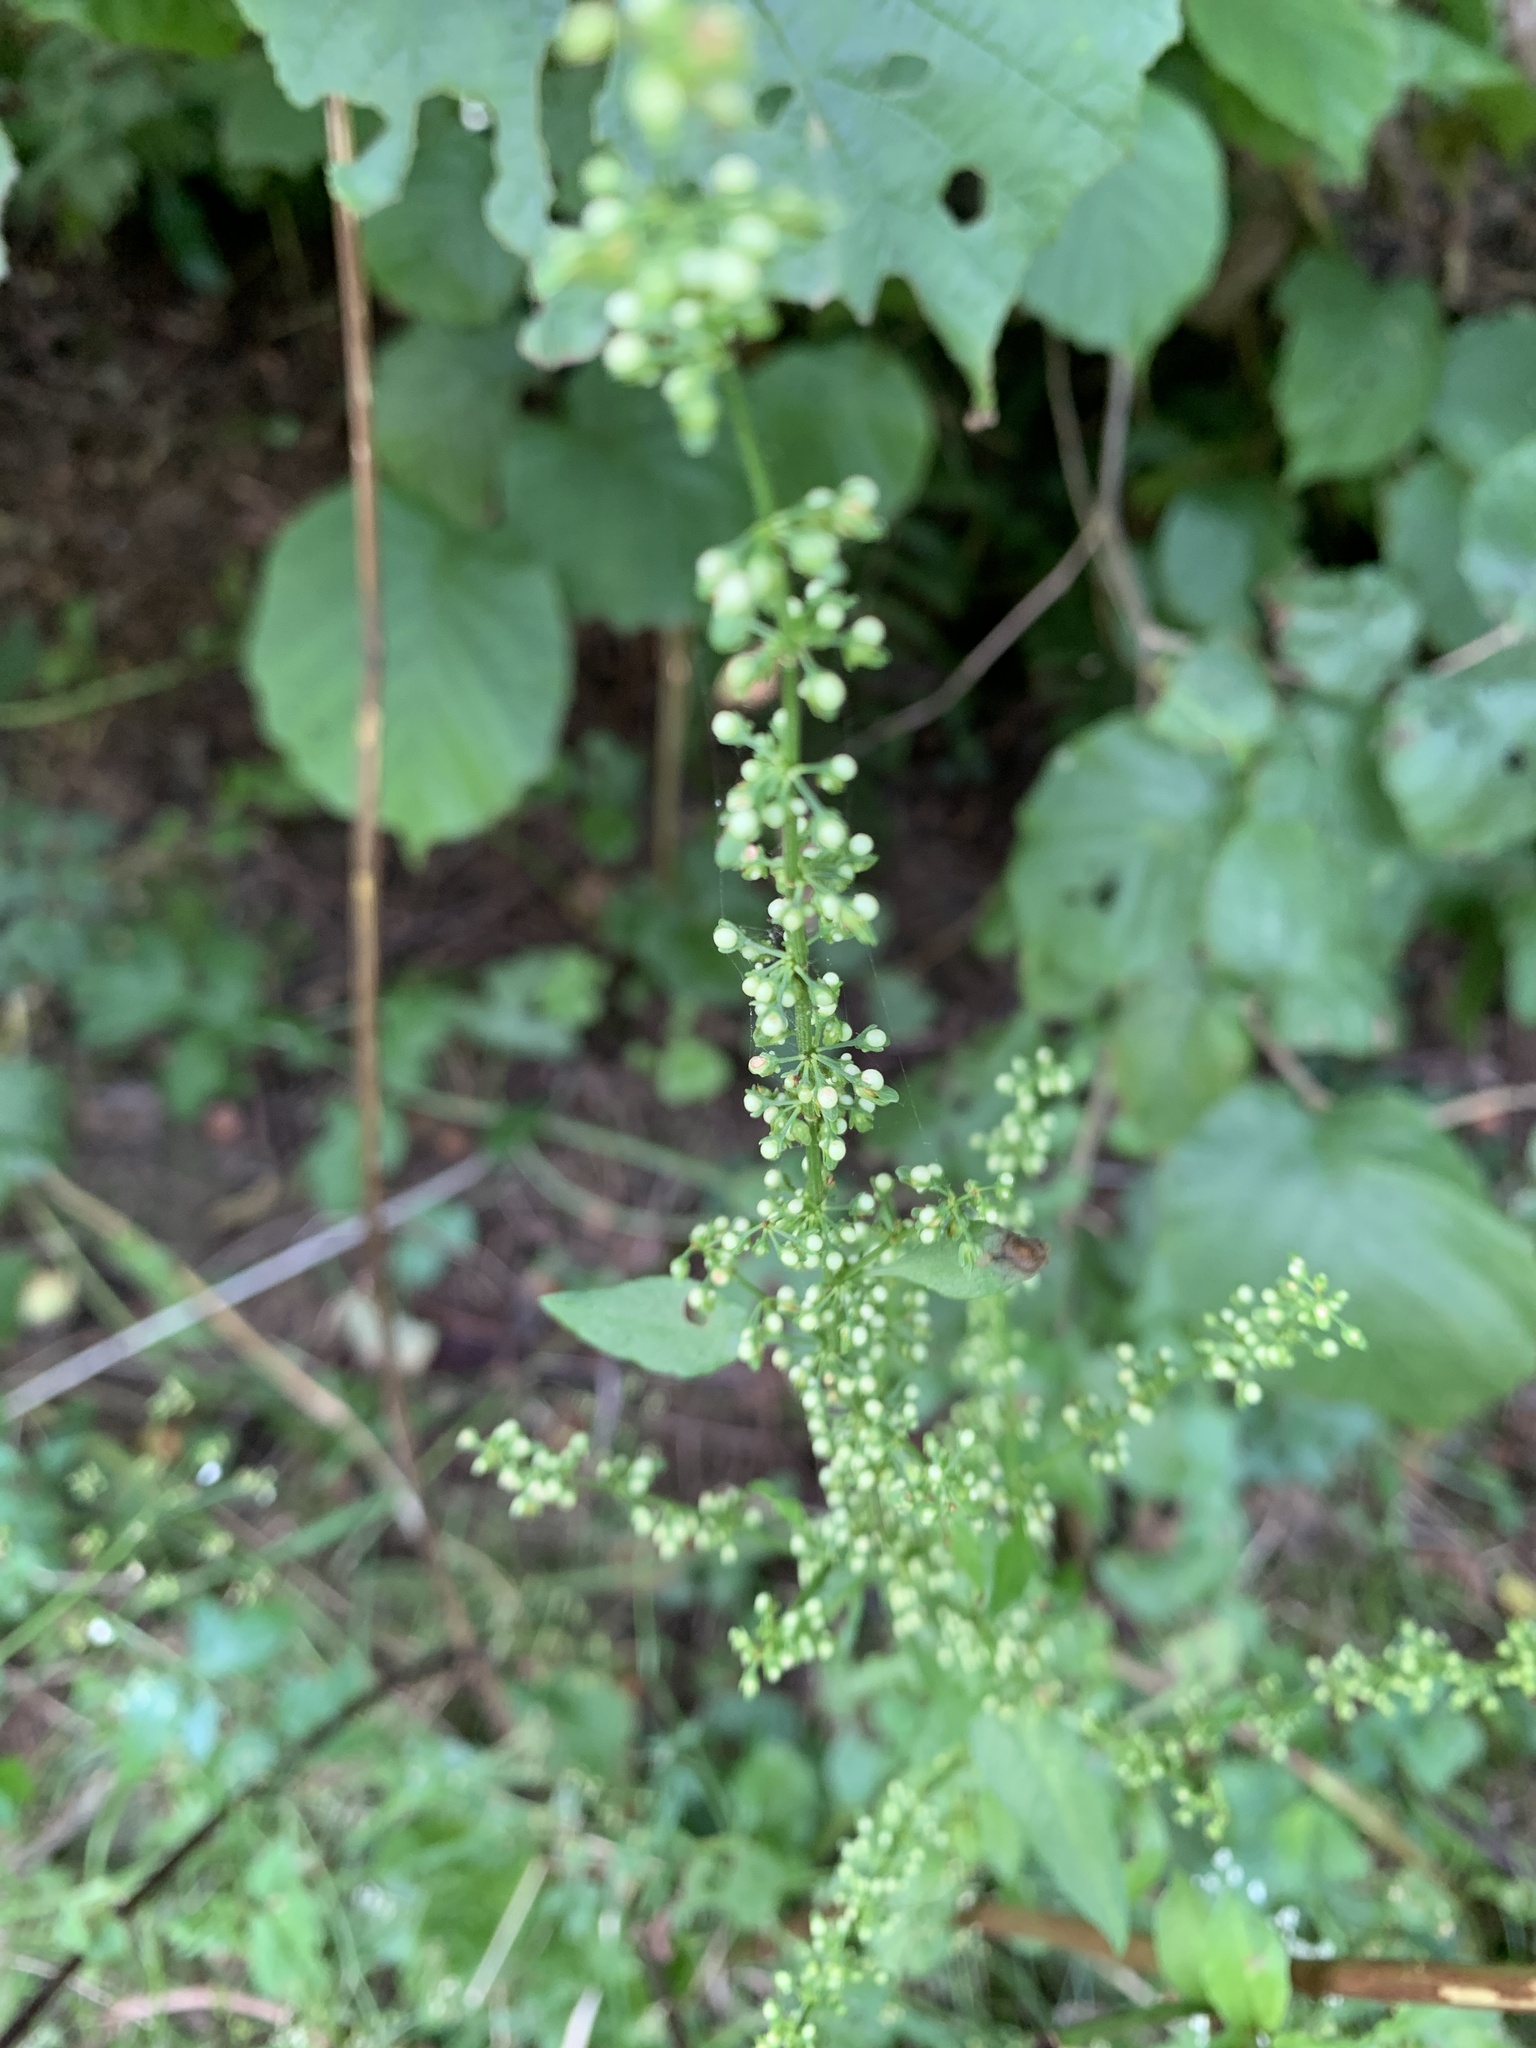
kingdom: Plantae
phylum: Tracheophyta
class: Magnoliopsida
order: Caryophyllales
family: Polygonaceae
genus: Rumex
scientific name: Rumex sanguineus
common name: Wood dock
